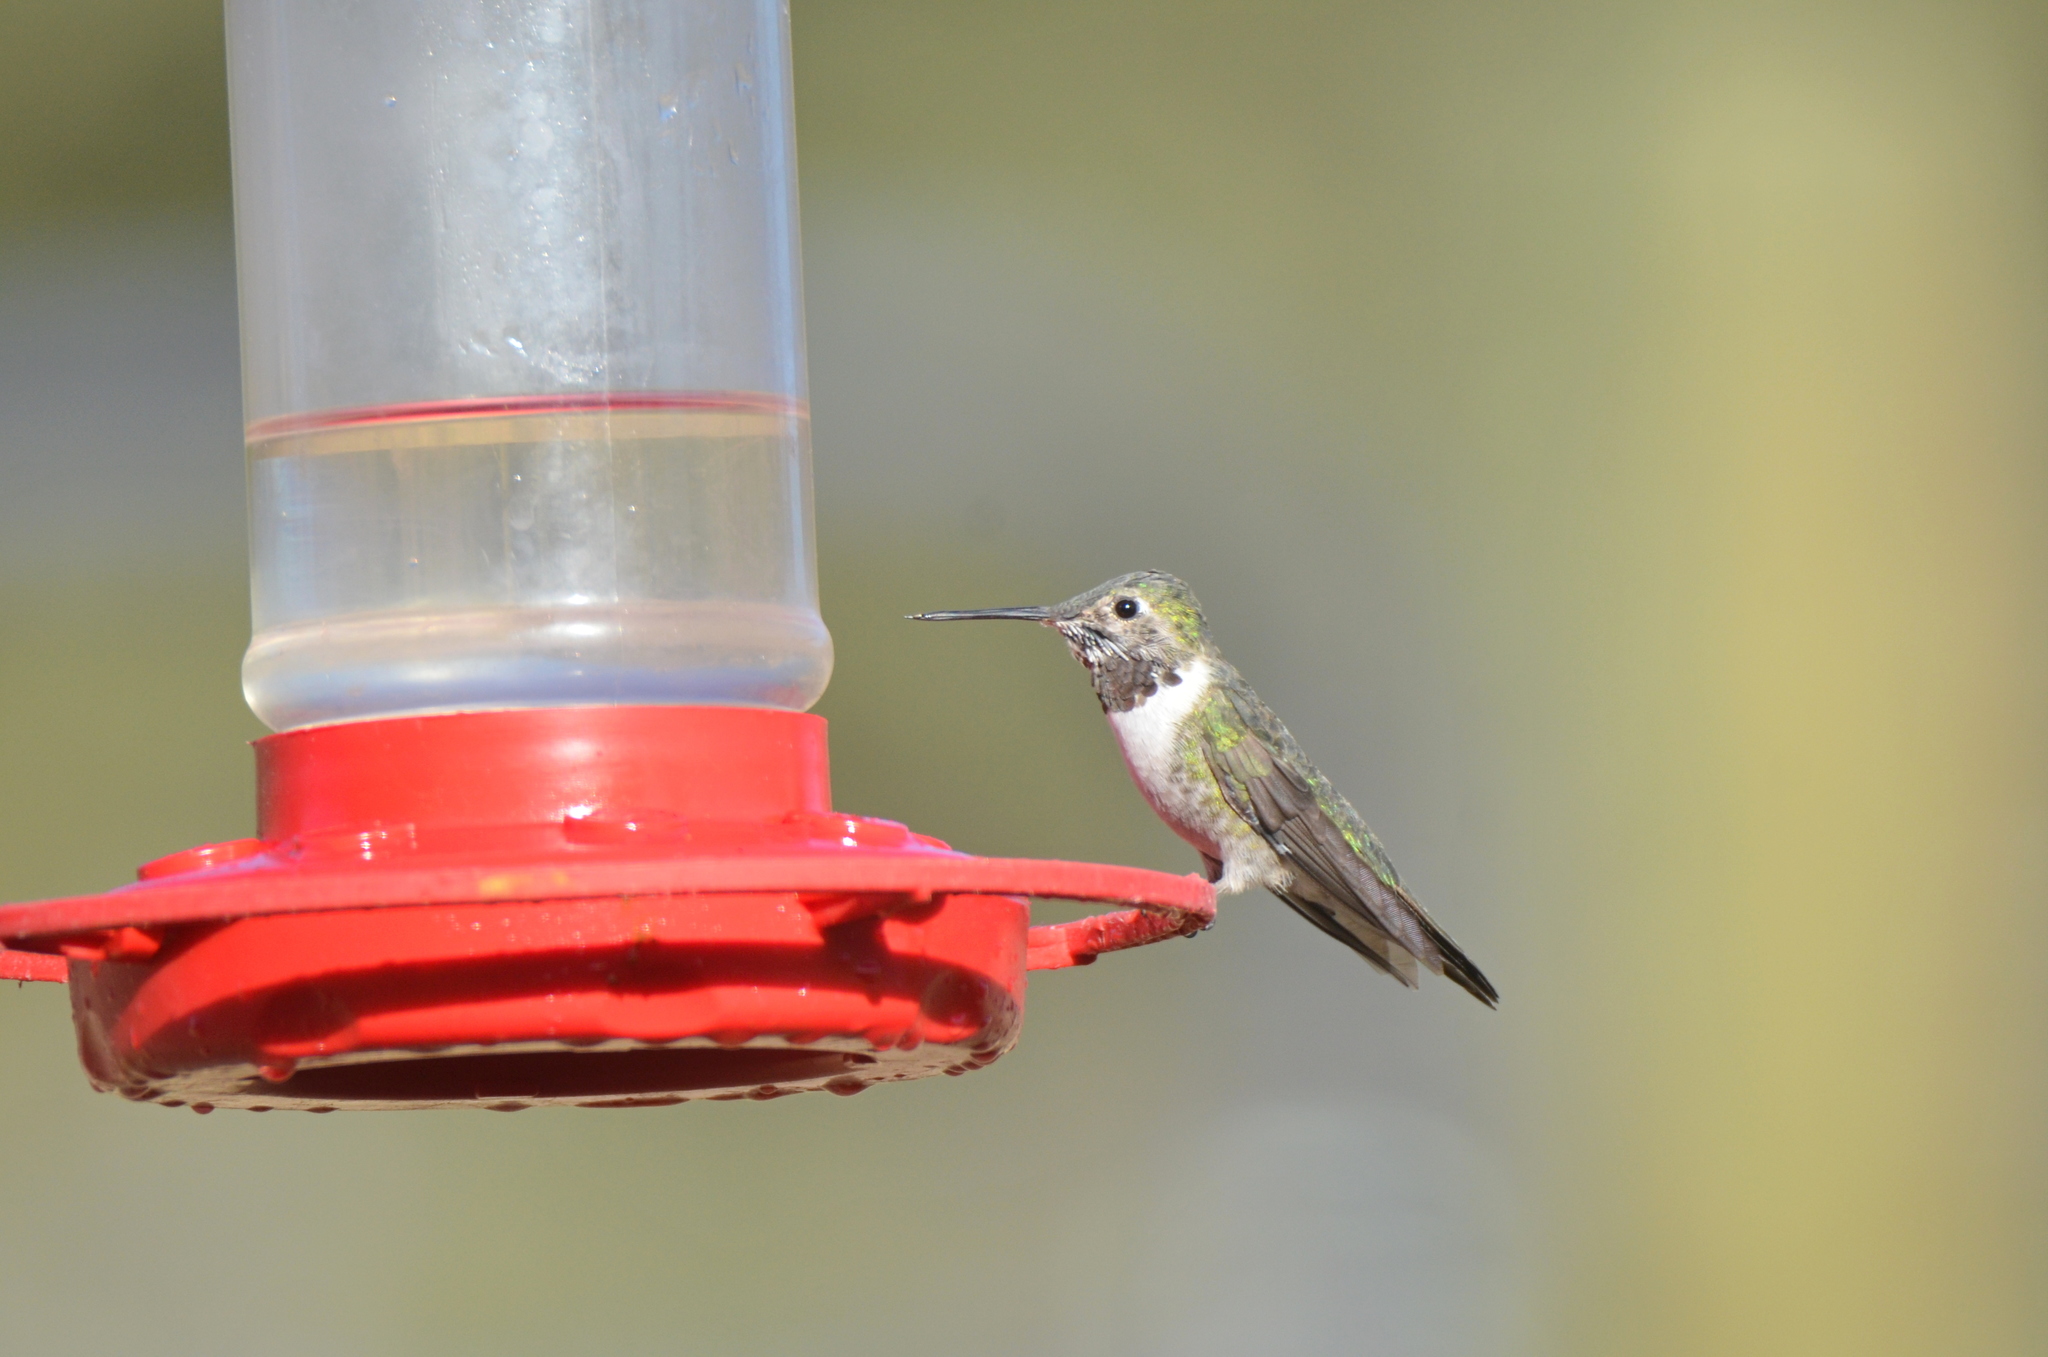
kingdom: Animalia
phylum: Chordata
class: Aves
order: Apodiformes
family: Trochilidae
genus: Selasphorus
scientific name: Selasphorus platycercus
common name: Broad-tailed hummingbird
